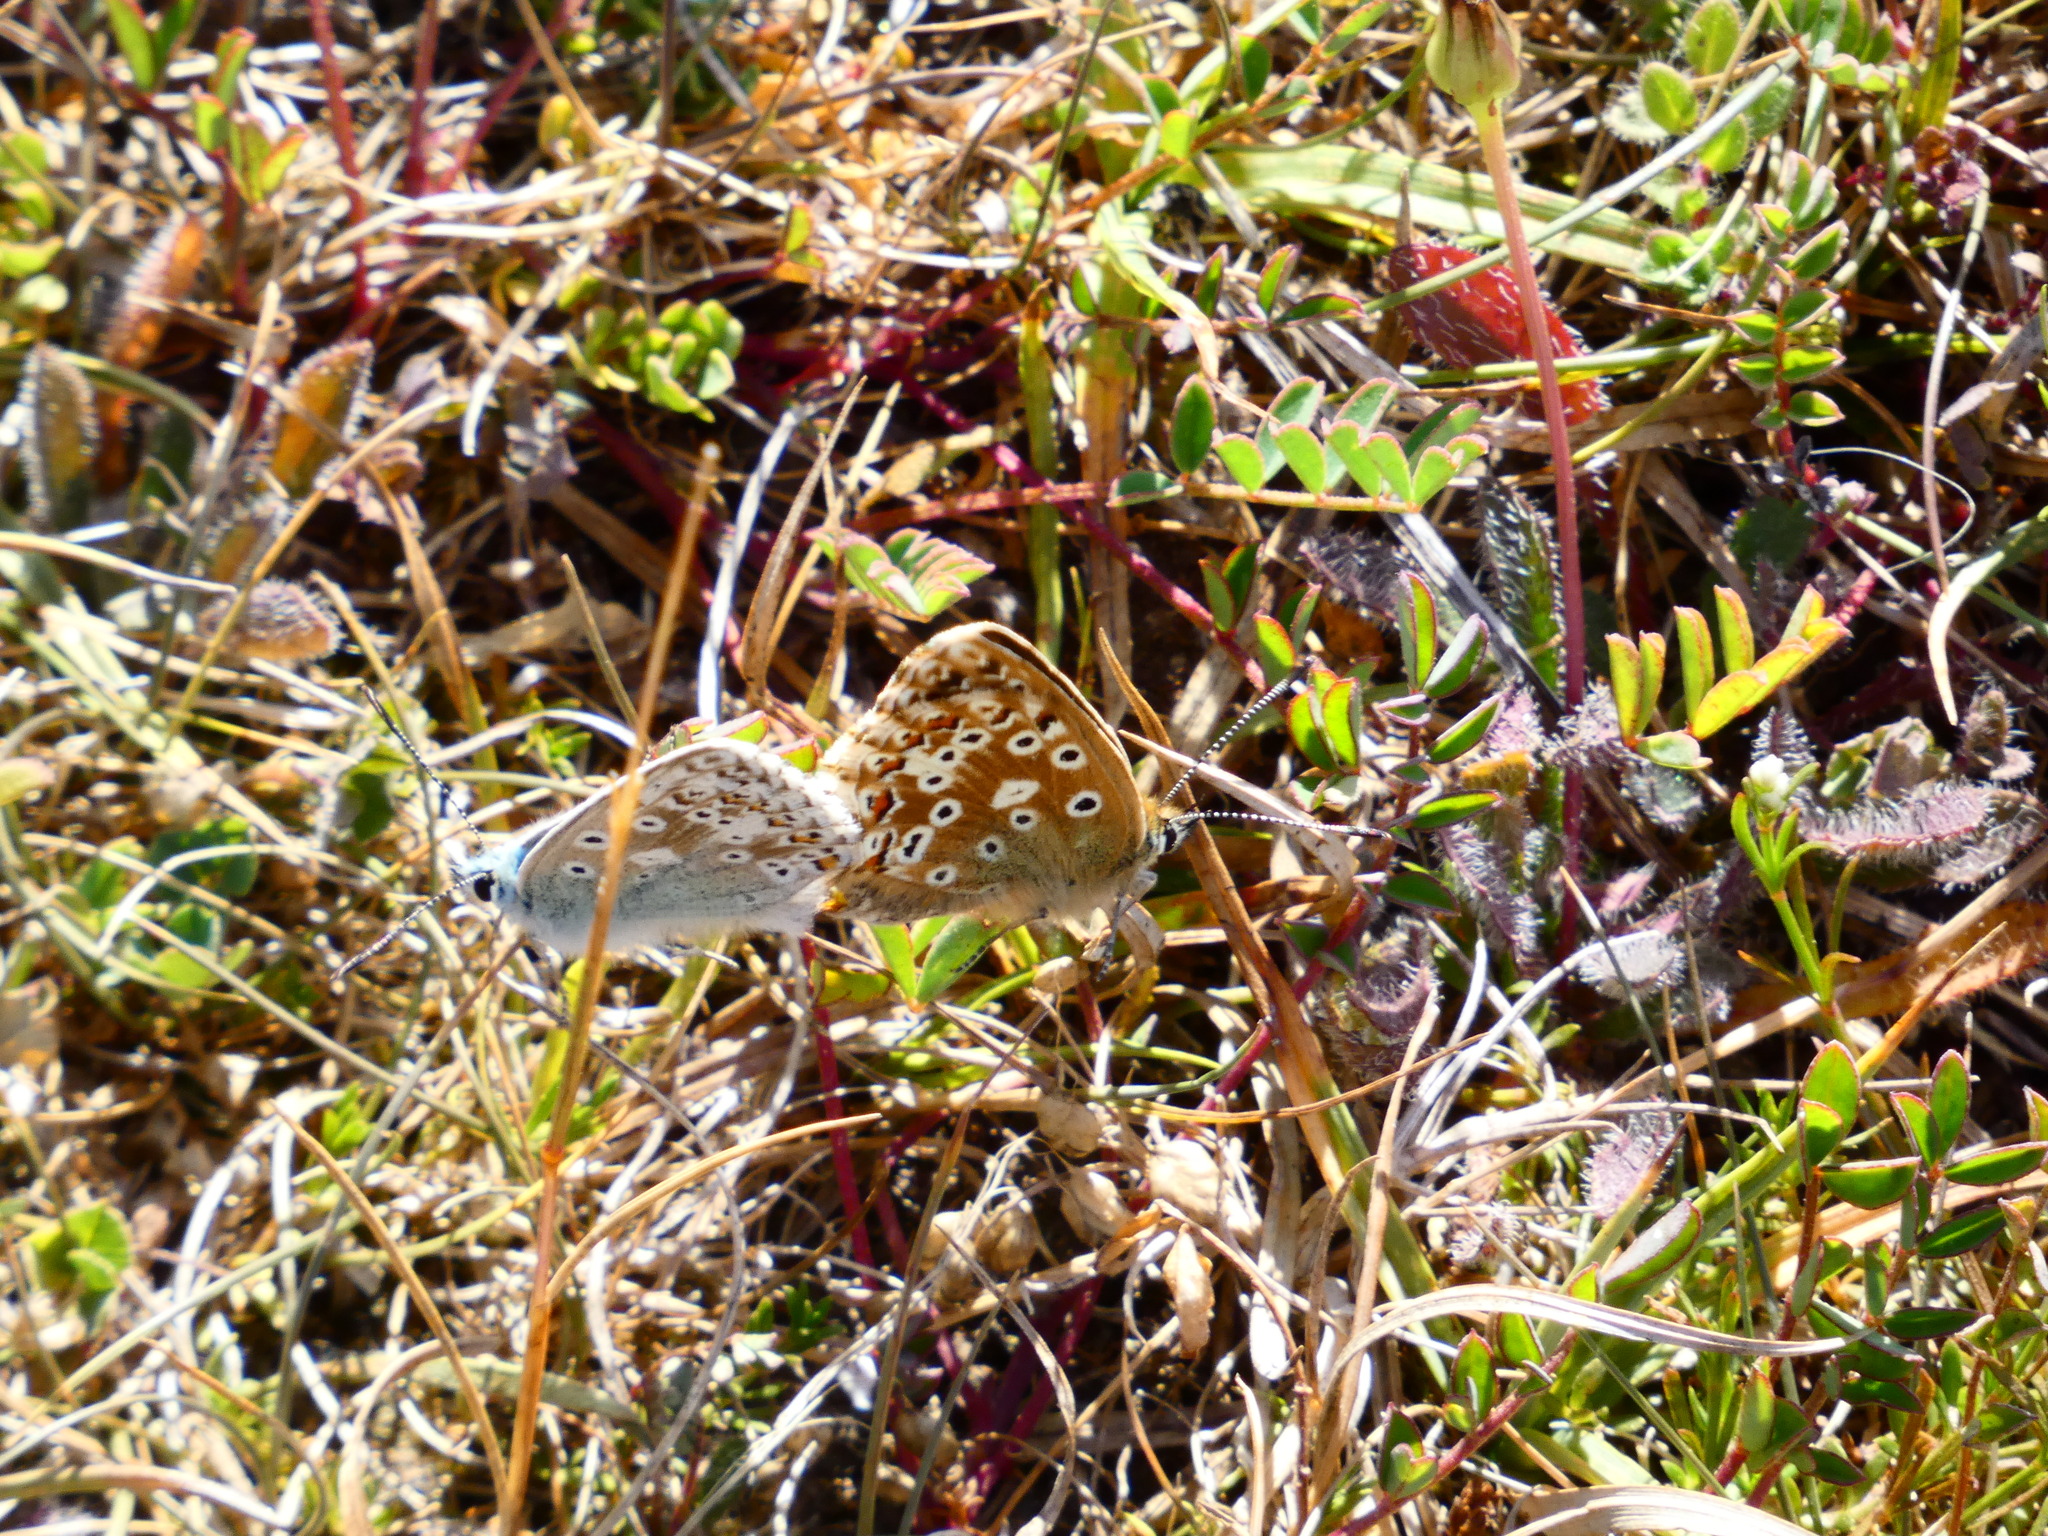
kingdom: Animalia
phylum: Arthropoda
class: Insecta
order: Lepidoptera
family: Lycaenidae
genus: Lysandra
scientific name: Lysandra coridon
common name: Chalkhill blue
